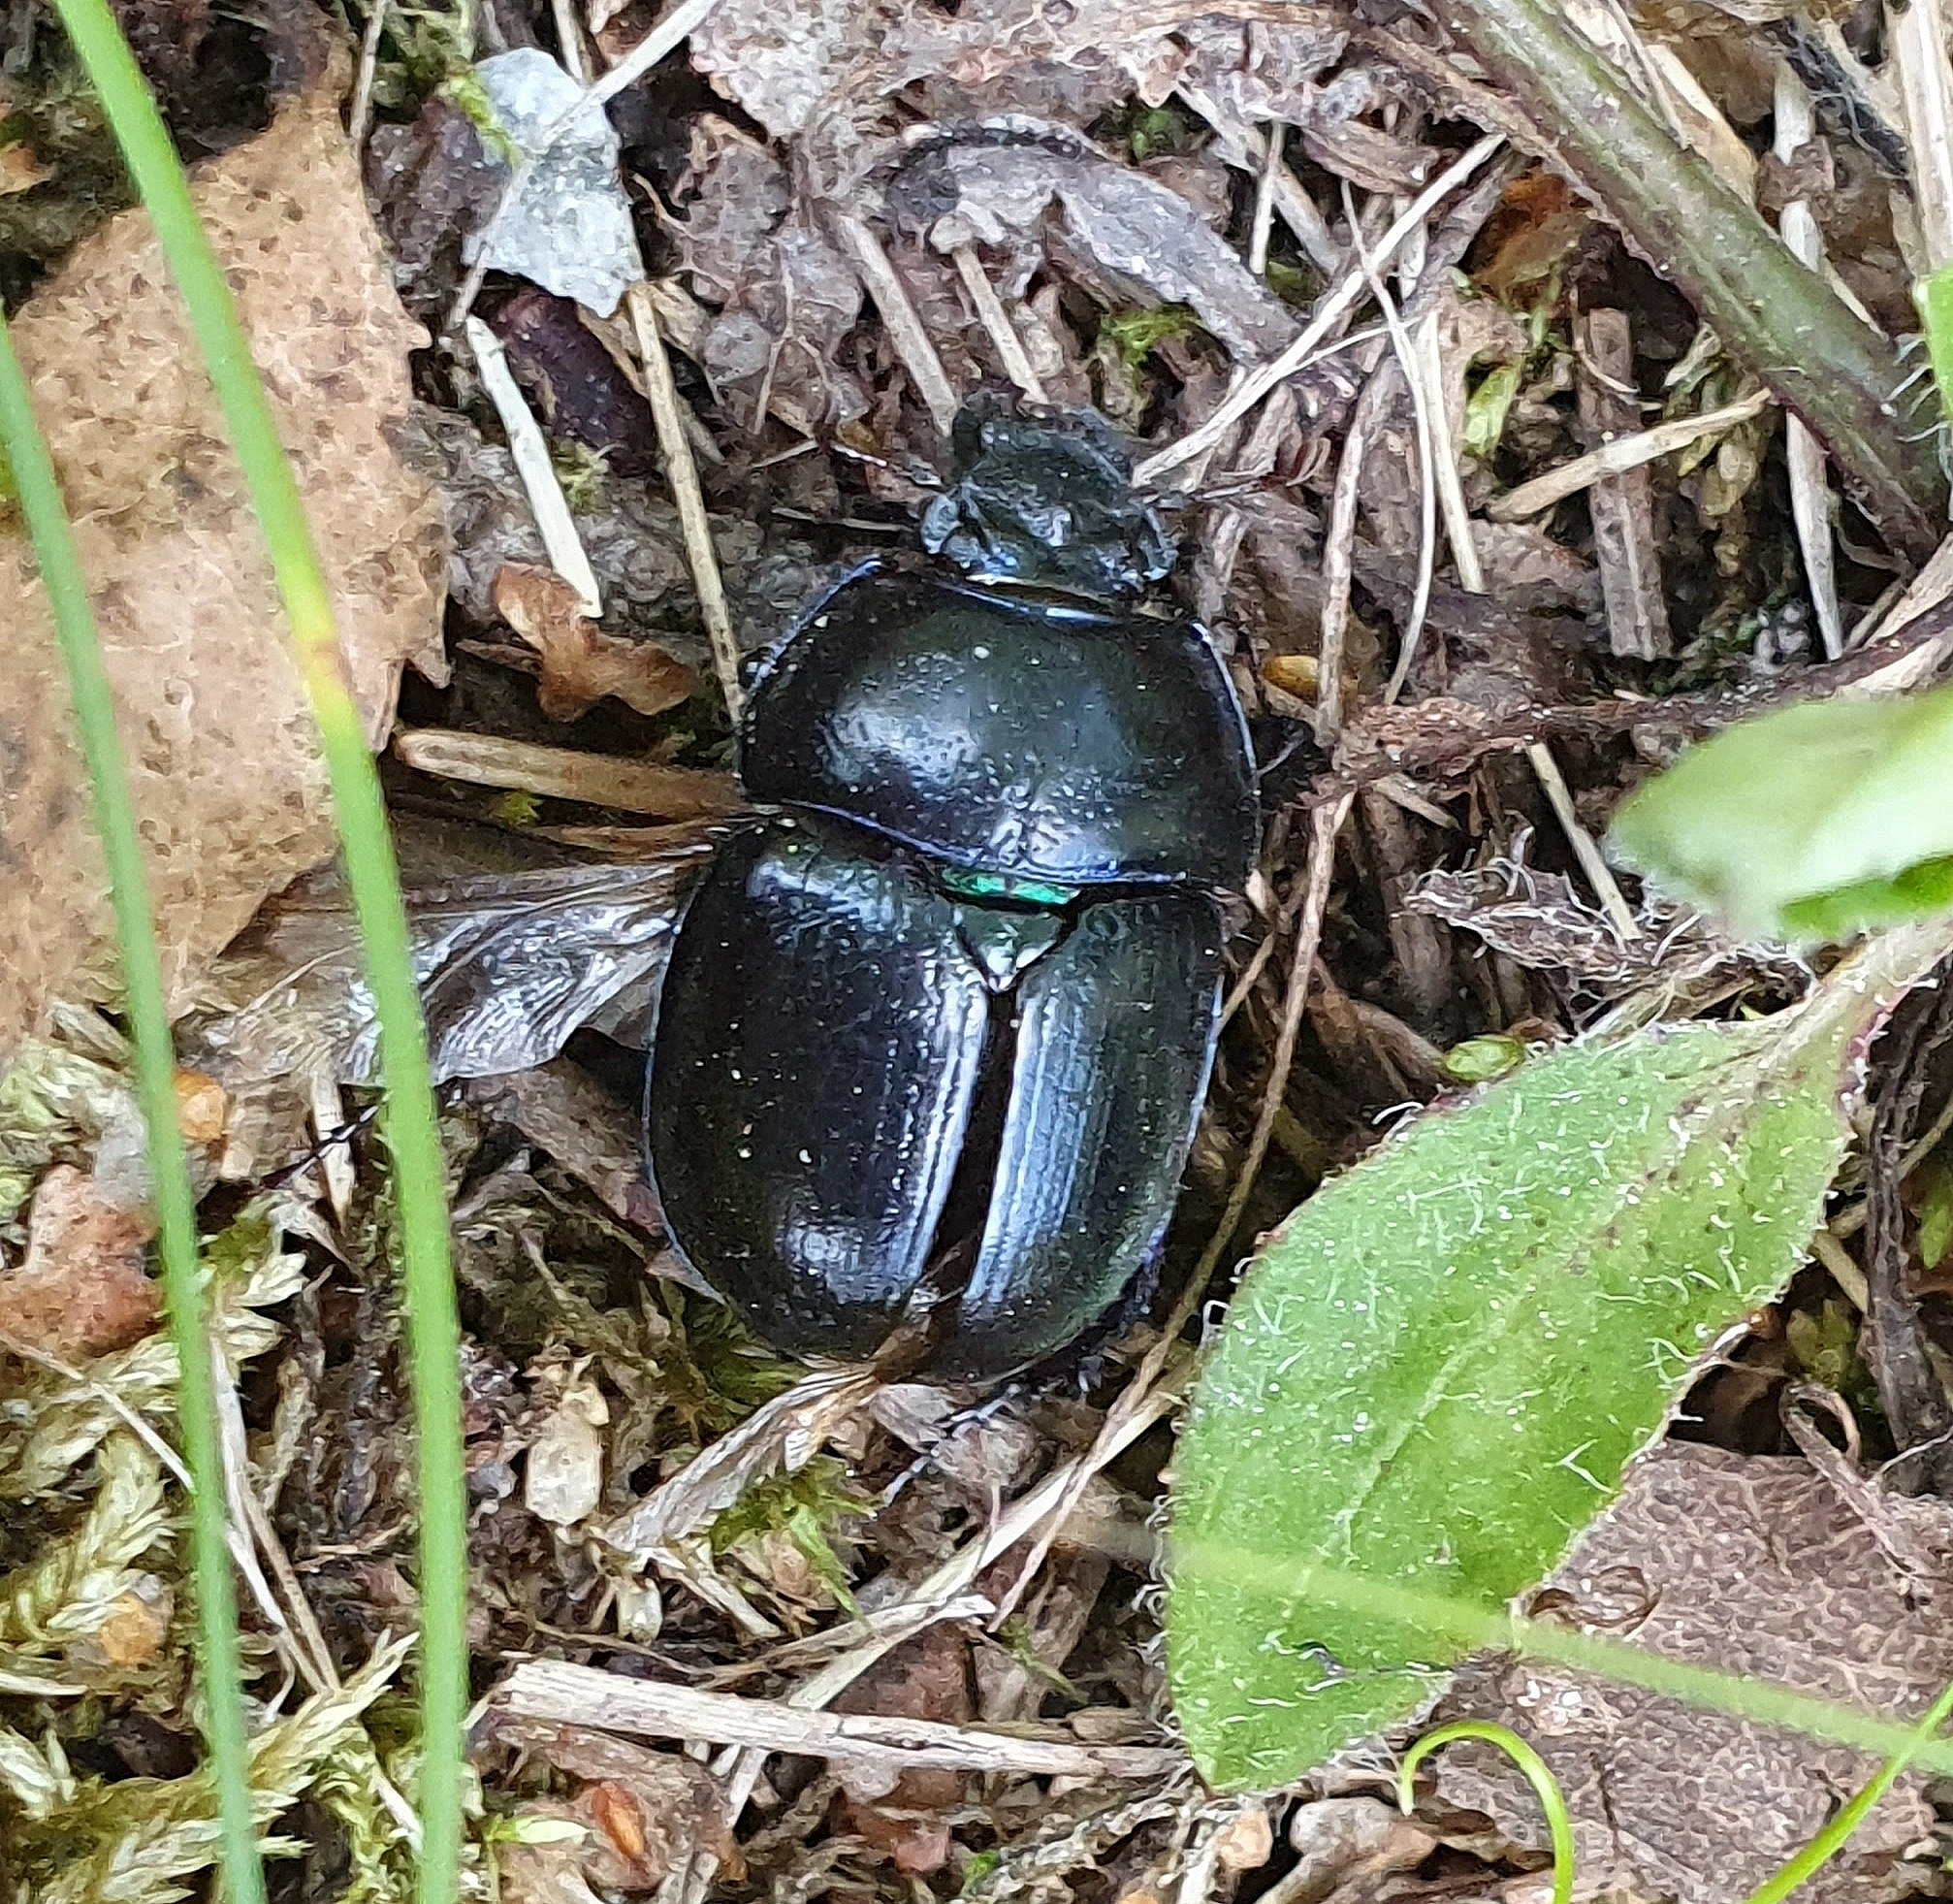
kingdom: Animalia
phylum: Arthropoda
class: Insecta
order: Coleoptera
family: Geotrupidae
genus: Anoplotrupes
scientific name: Anoplotrupes stercorosus
